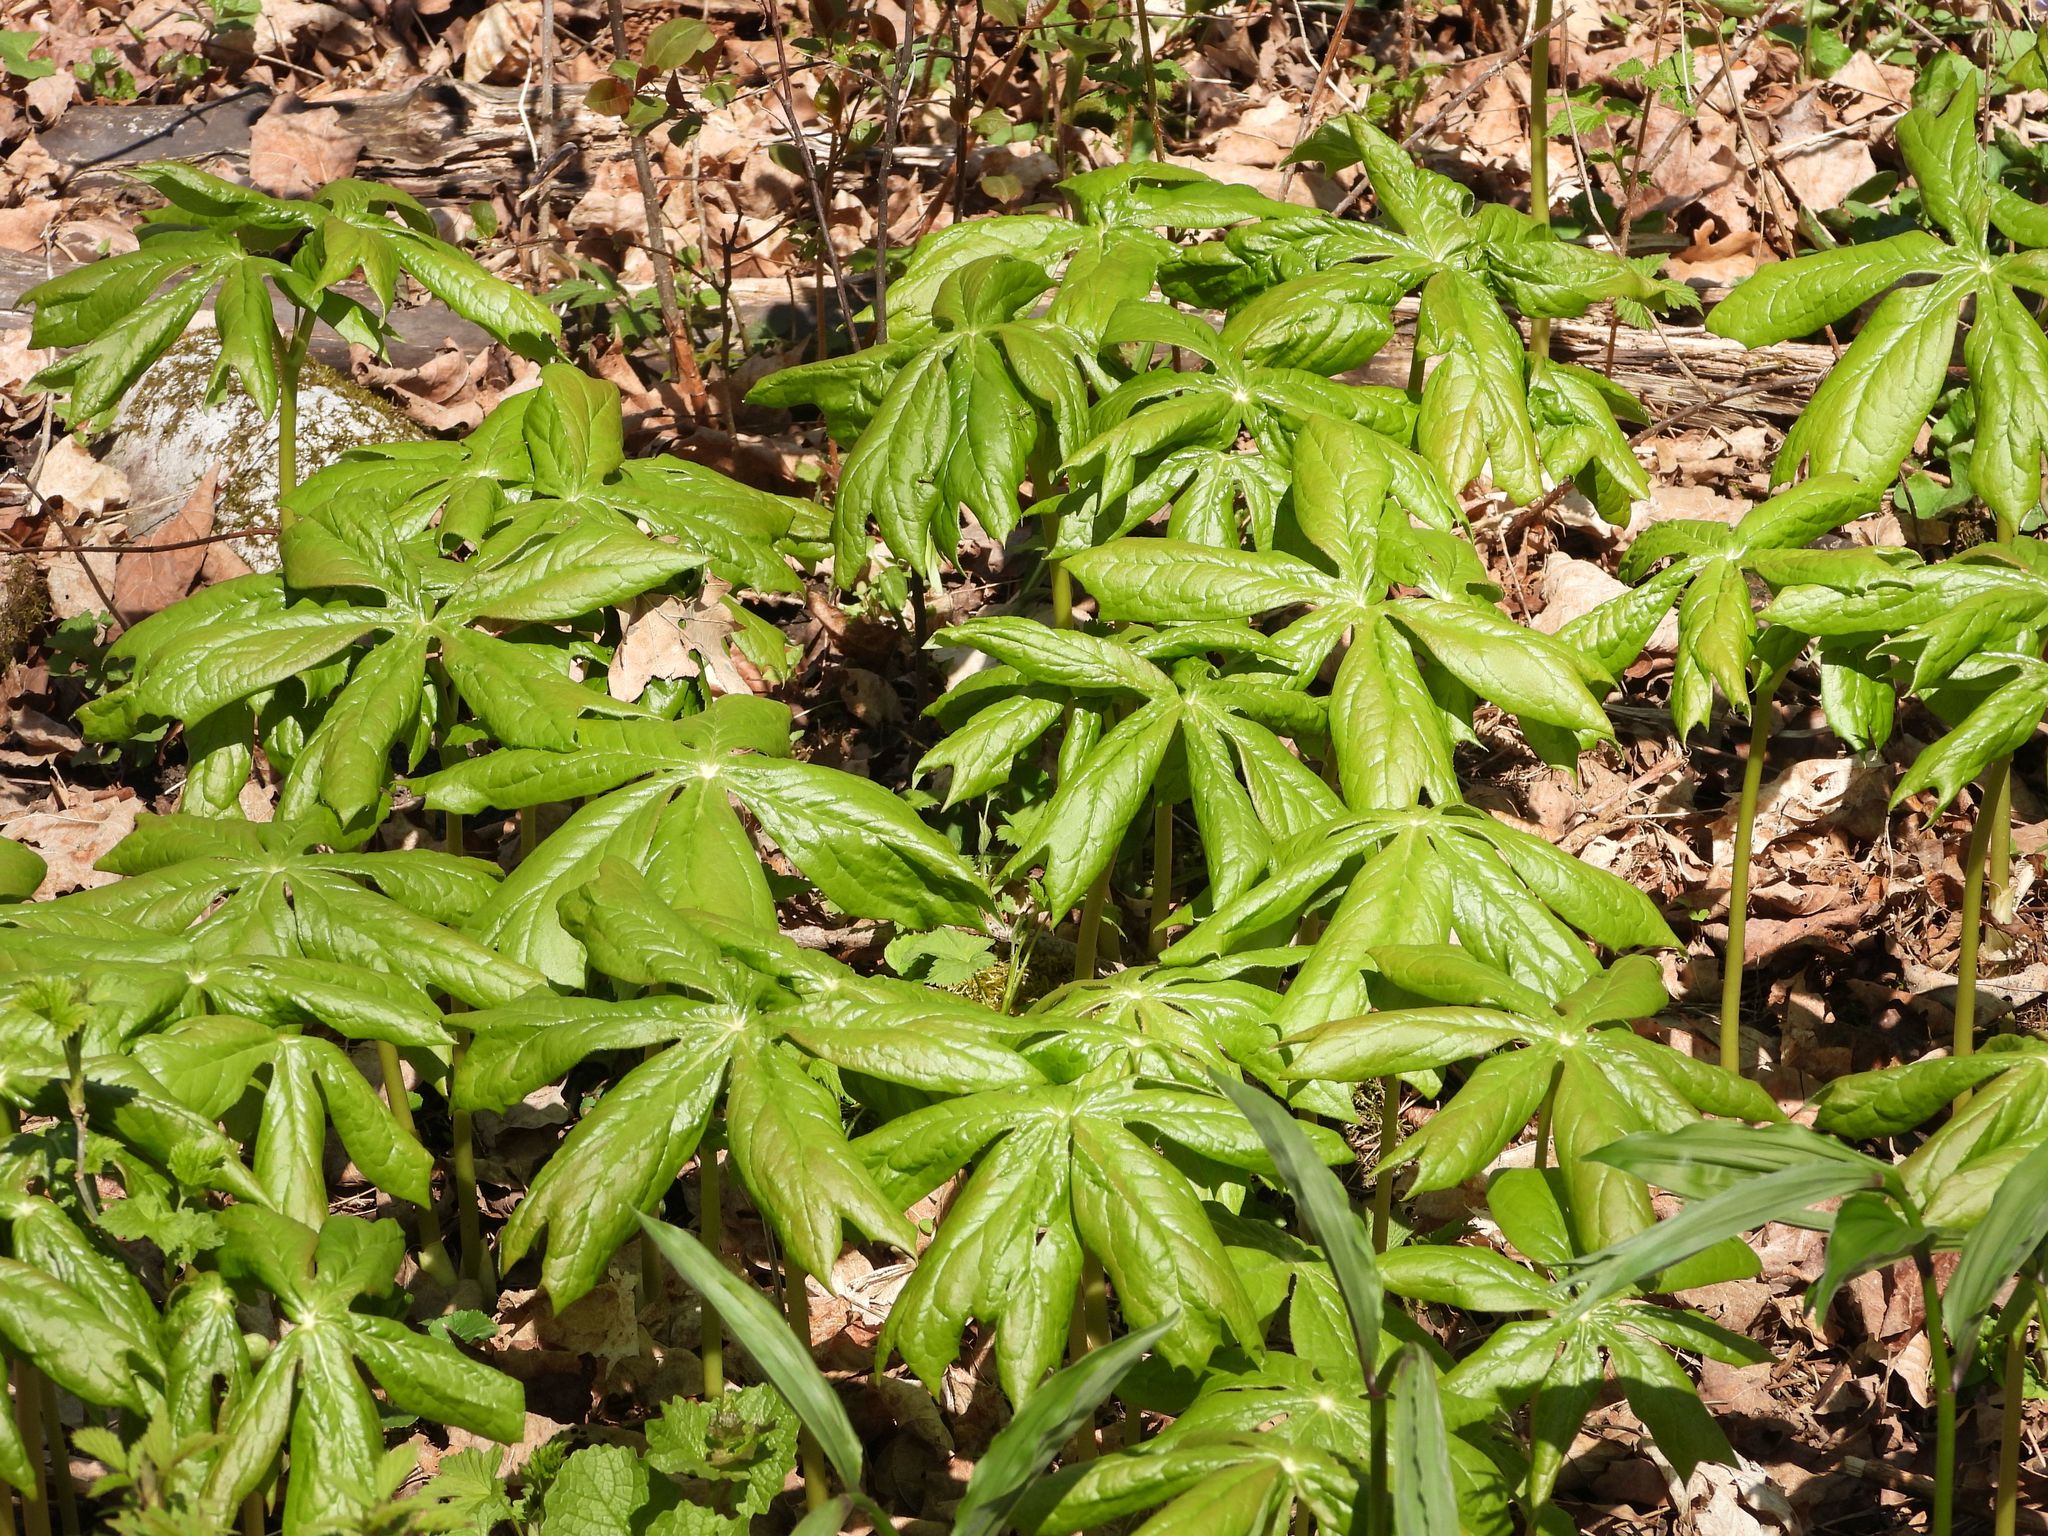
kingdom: Plantae
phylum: Tracheophyta
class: Magnoliopsida
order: Ranunculales
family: Berberidaceae
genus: Podophyllum
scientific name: Podophyllum peltatum
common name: Wild mandrake
